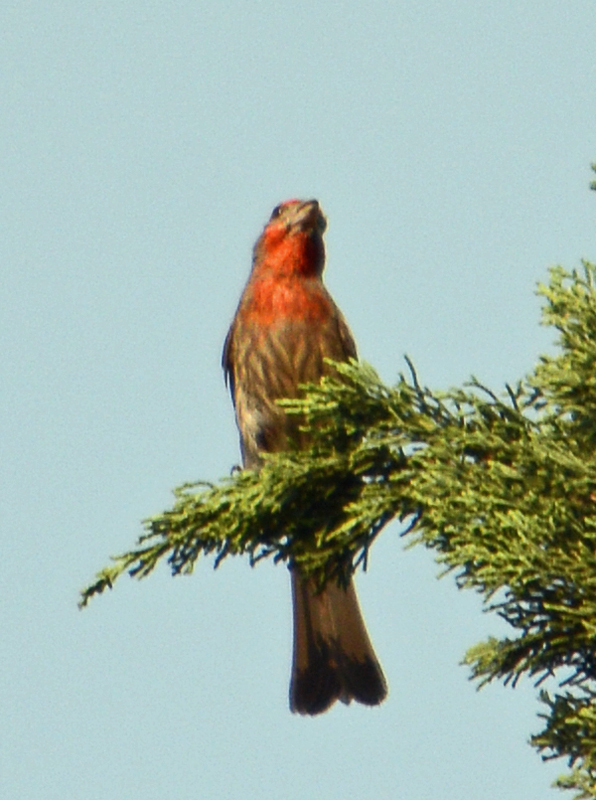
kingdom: Animalia
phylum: Chordata
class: Aves
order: Passeriformes
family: Fringillidae
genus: Haemorhous
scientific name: Haemorhous mexicanus
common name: House finch
